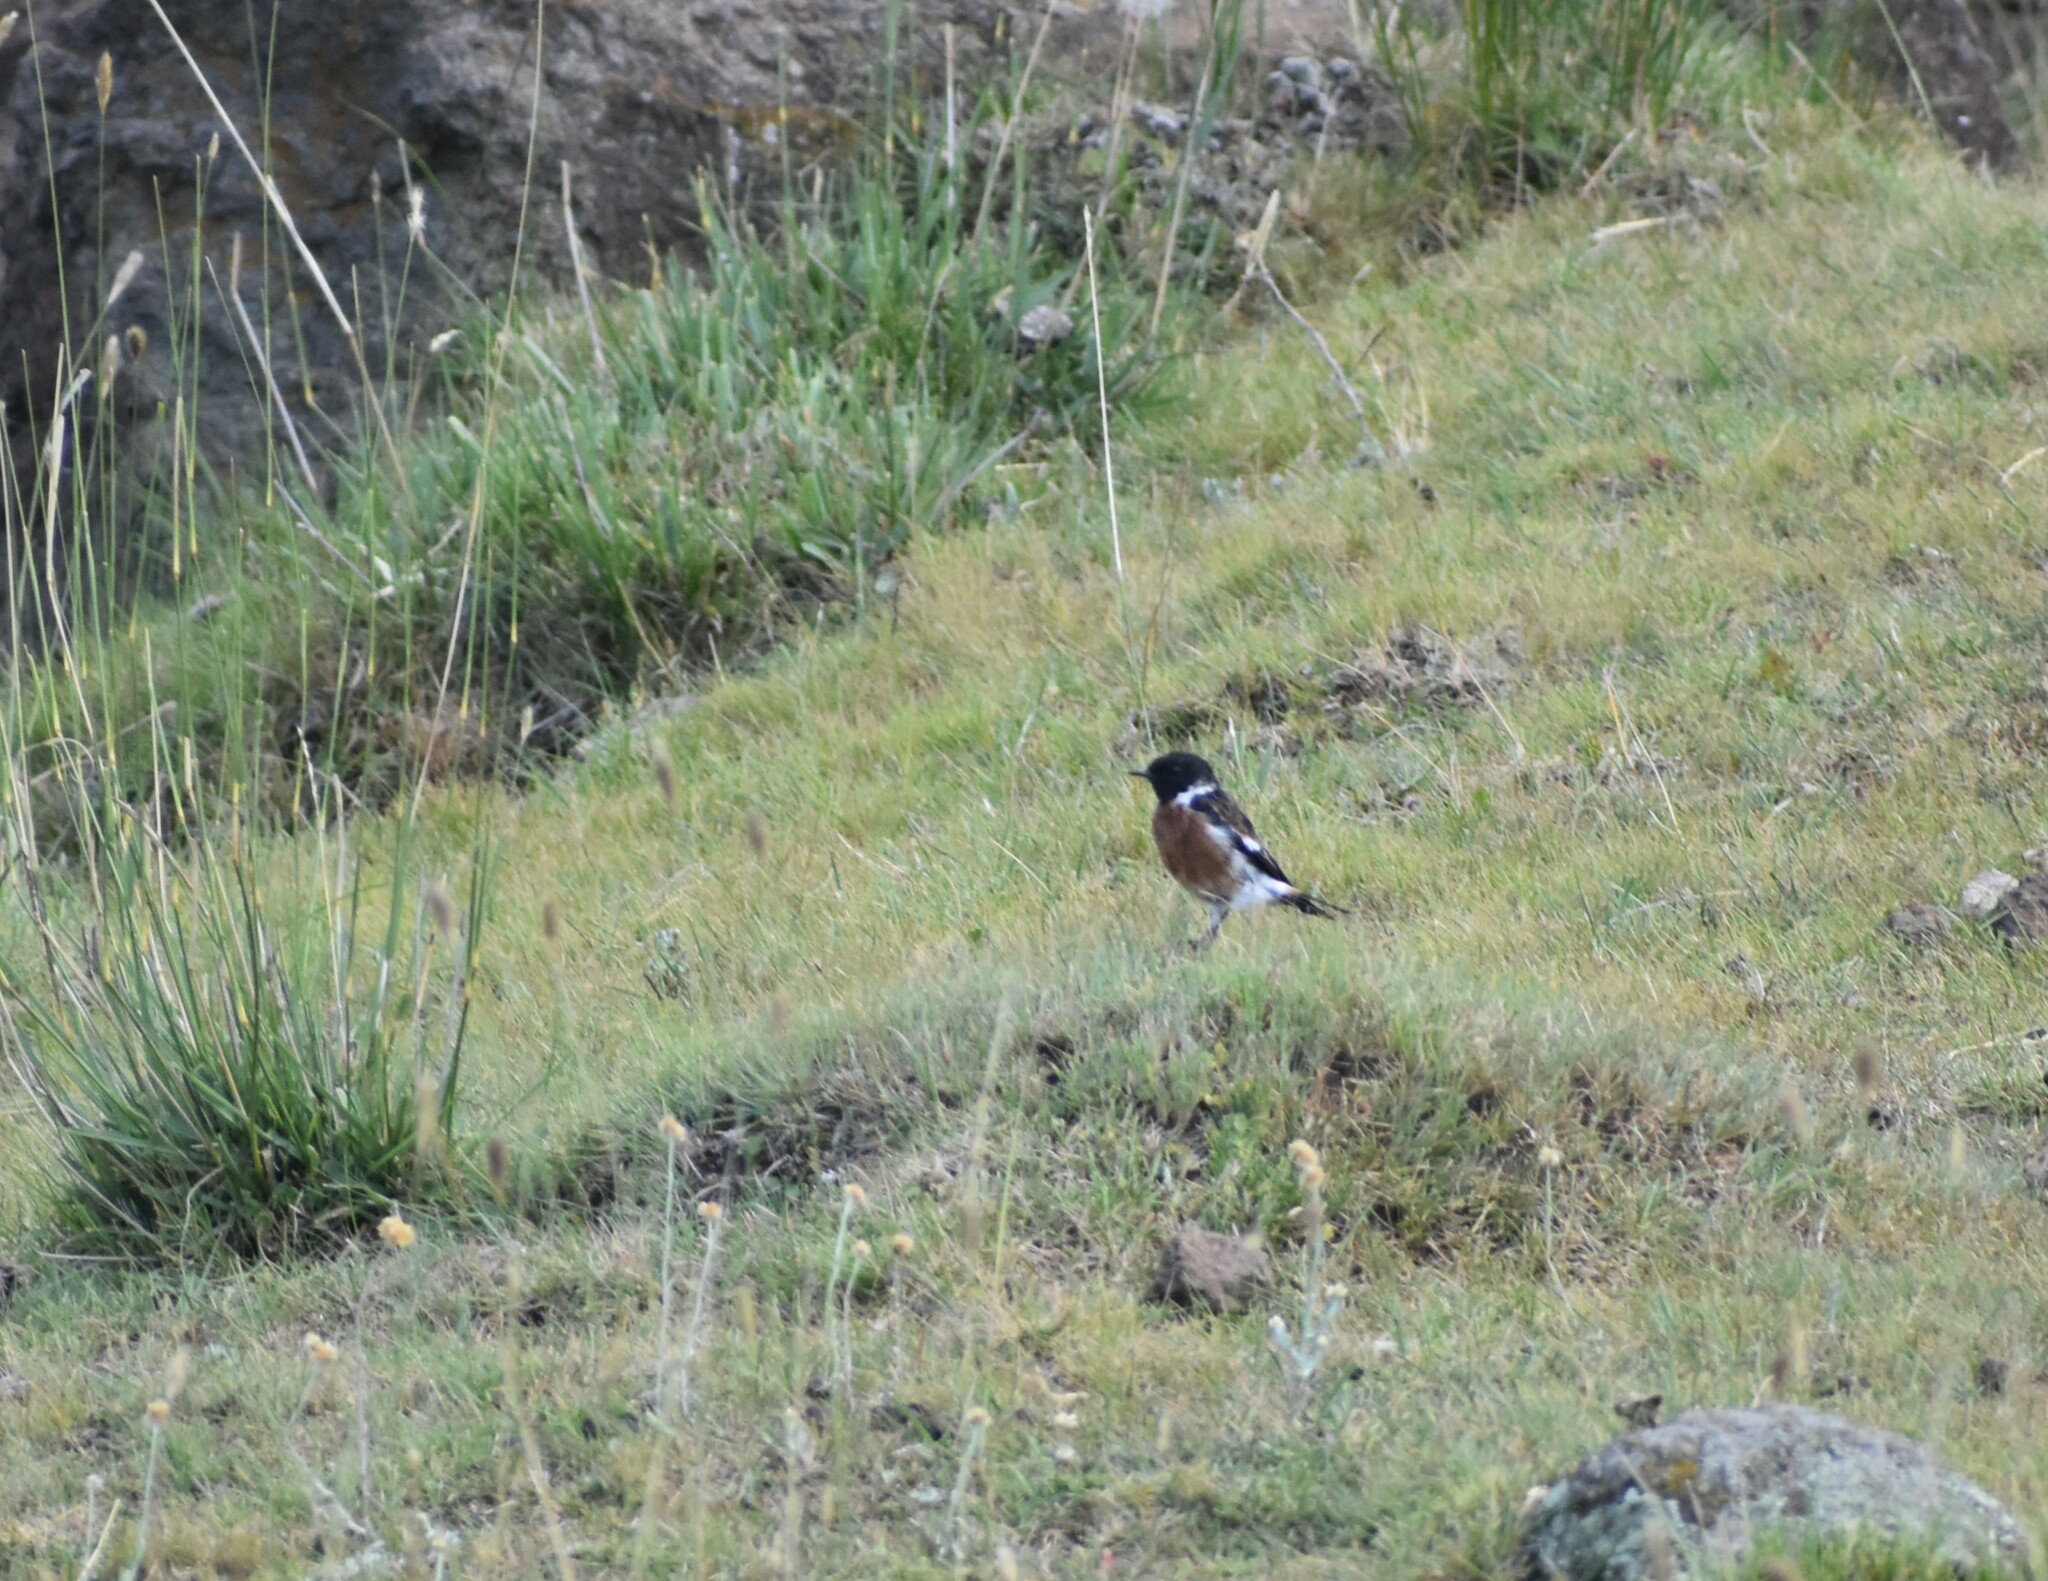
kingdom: Animalia
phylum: Chordata
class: Aves
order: Passeriformes
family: Muscicapidae
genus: Saxicola
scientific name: Saxicola torquatus
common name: African stonechat
